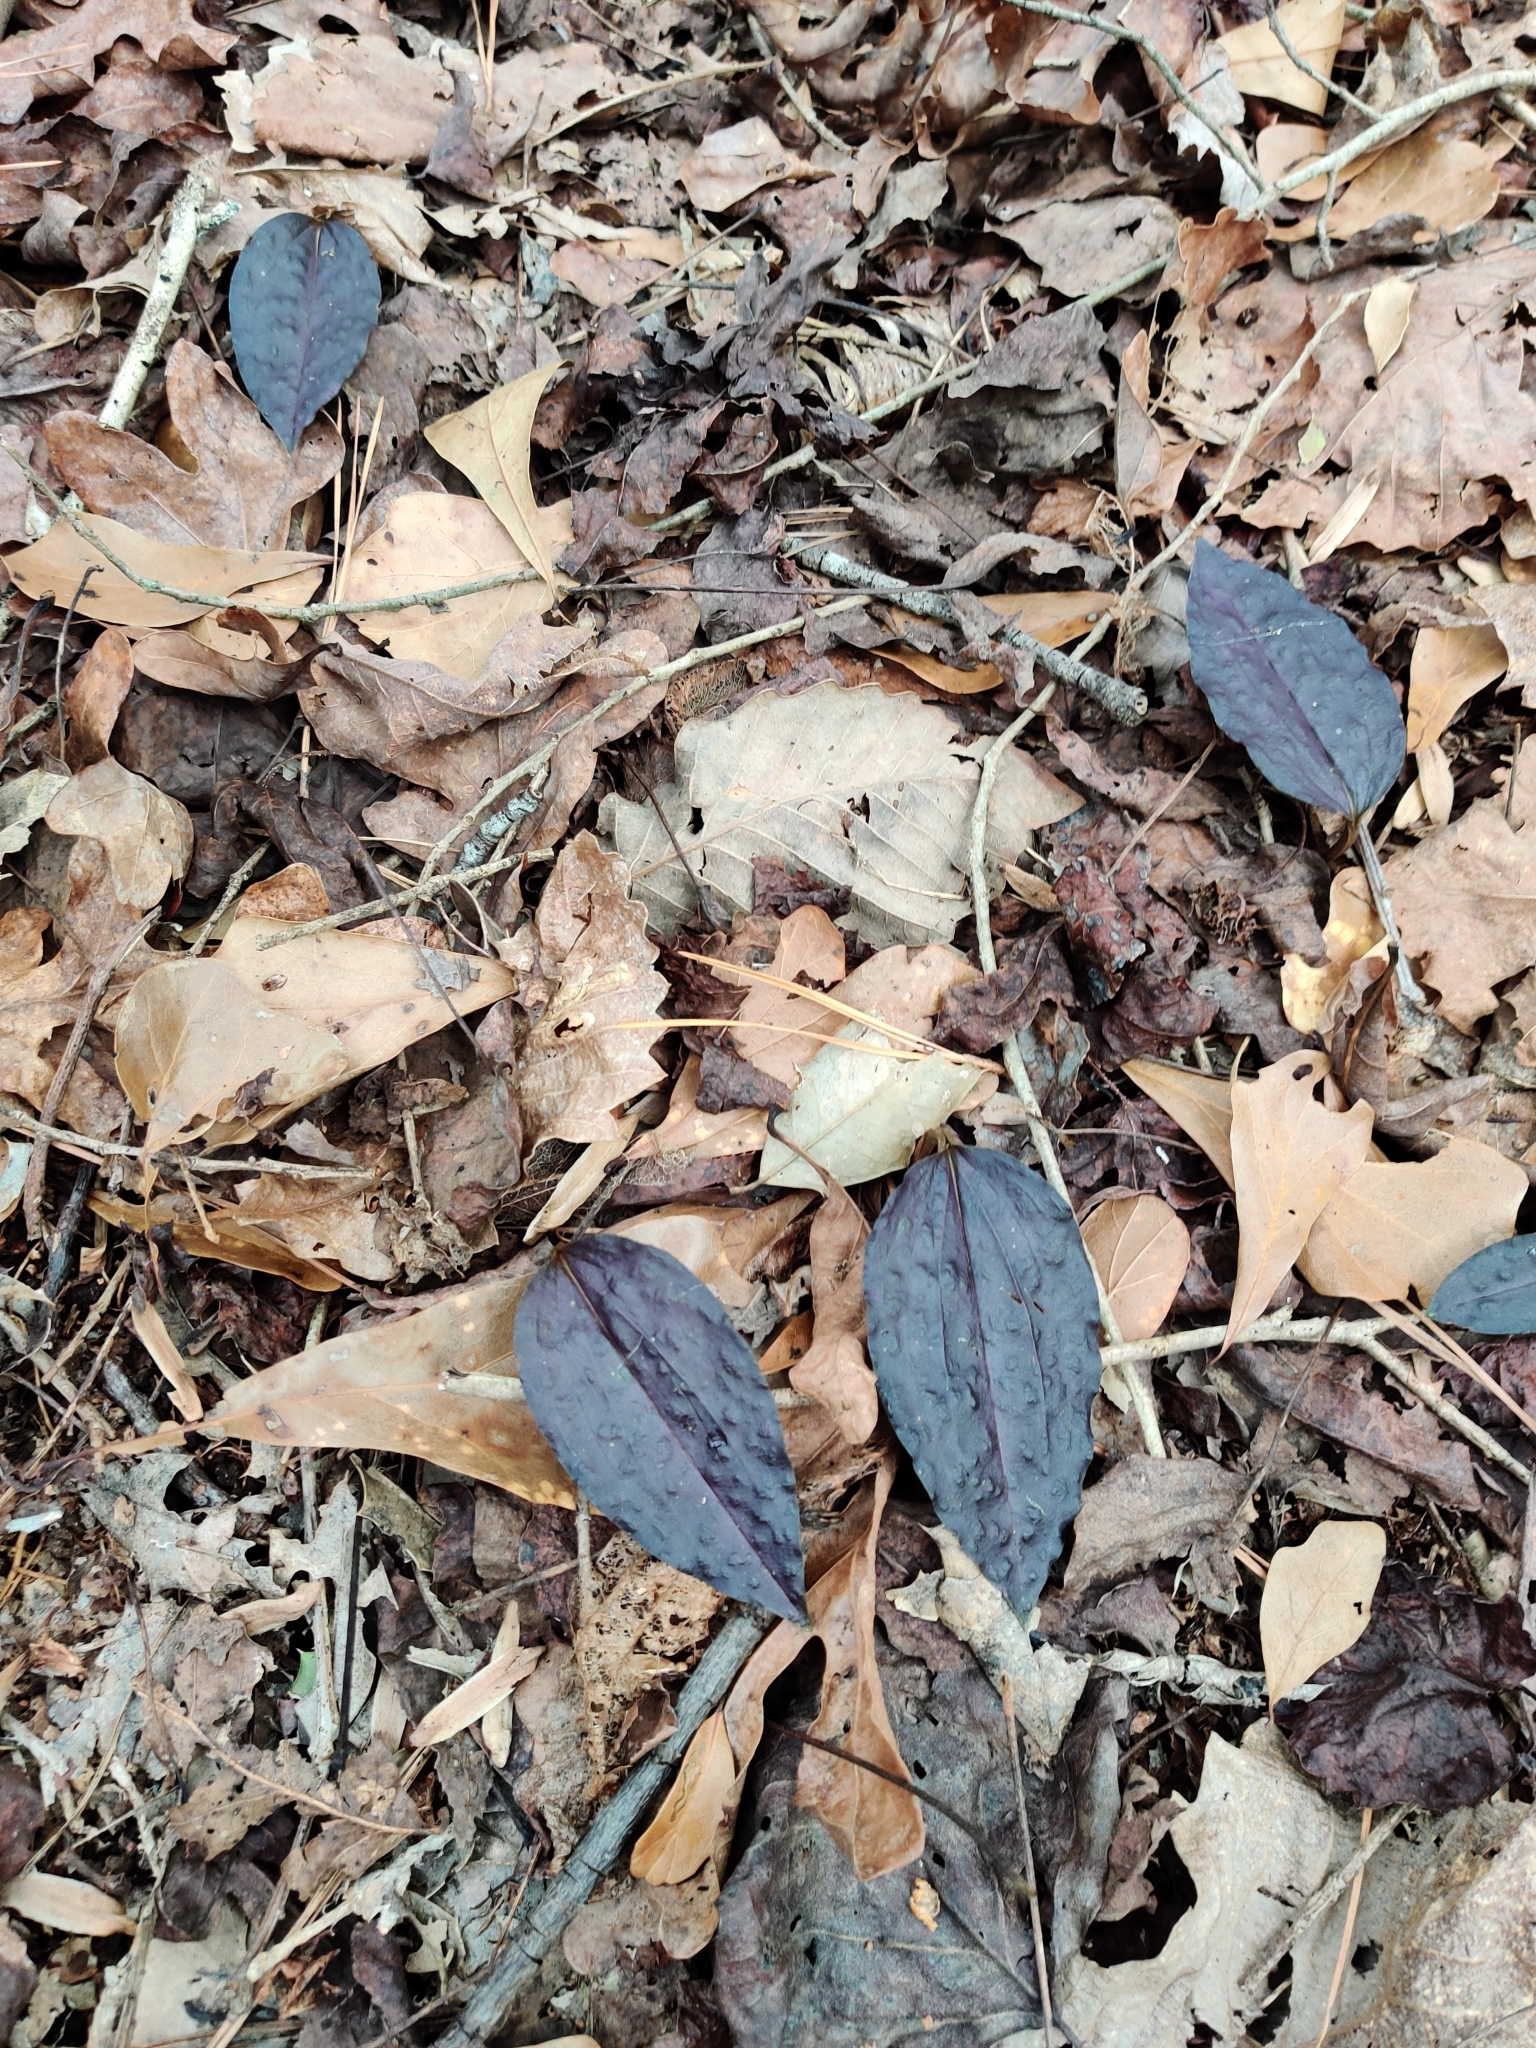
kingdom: Plantae
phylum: Tracheophyta
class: Liliopsida
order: Asparagales
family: Orchidaceae
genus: Tipularia
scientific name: Tipularia discolor
